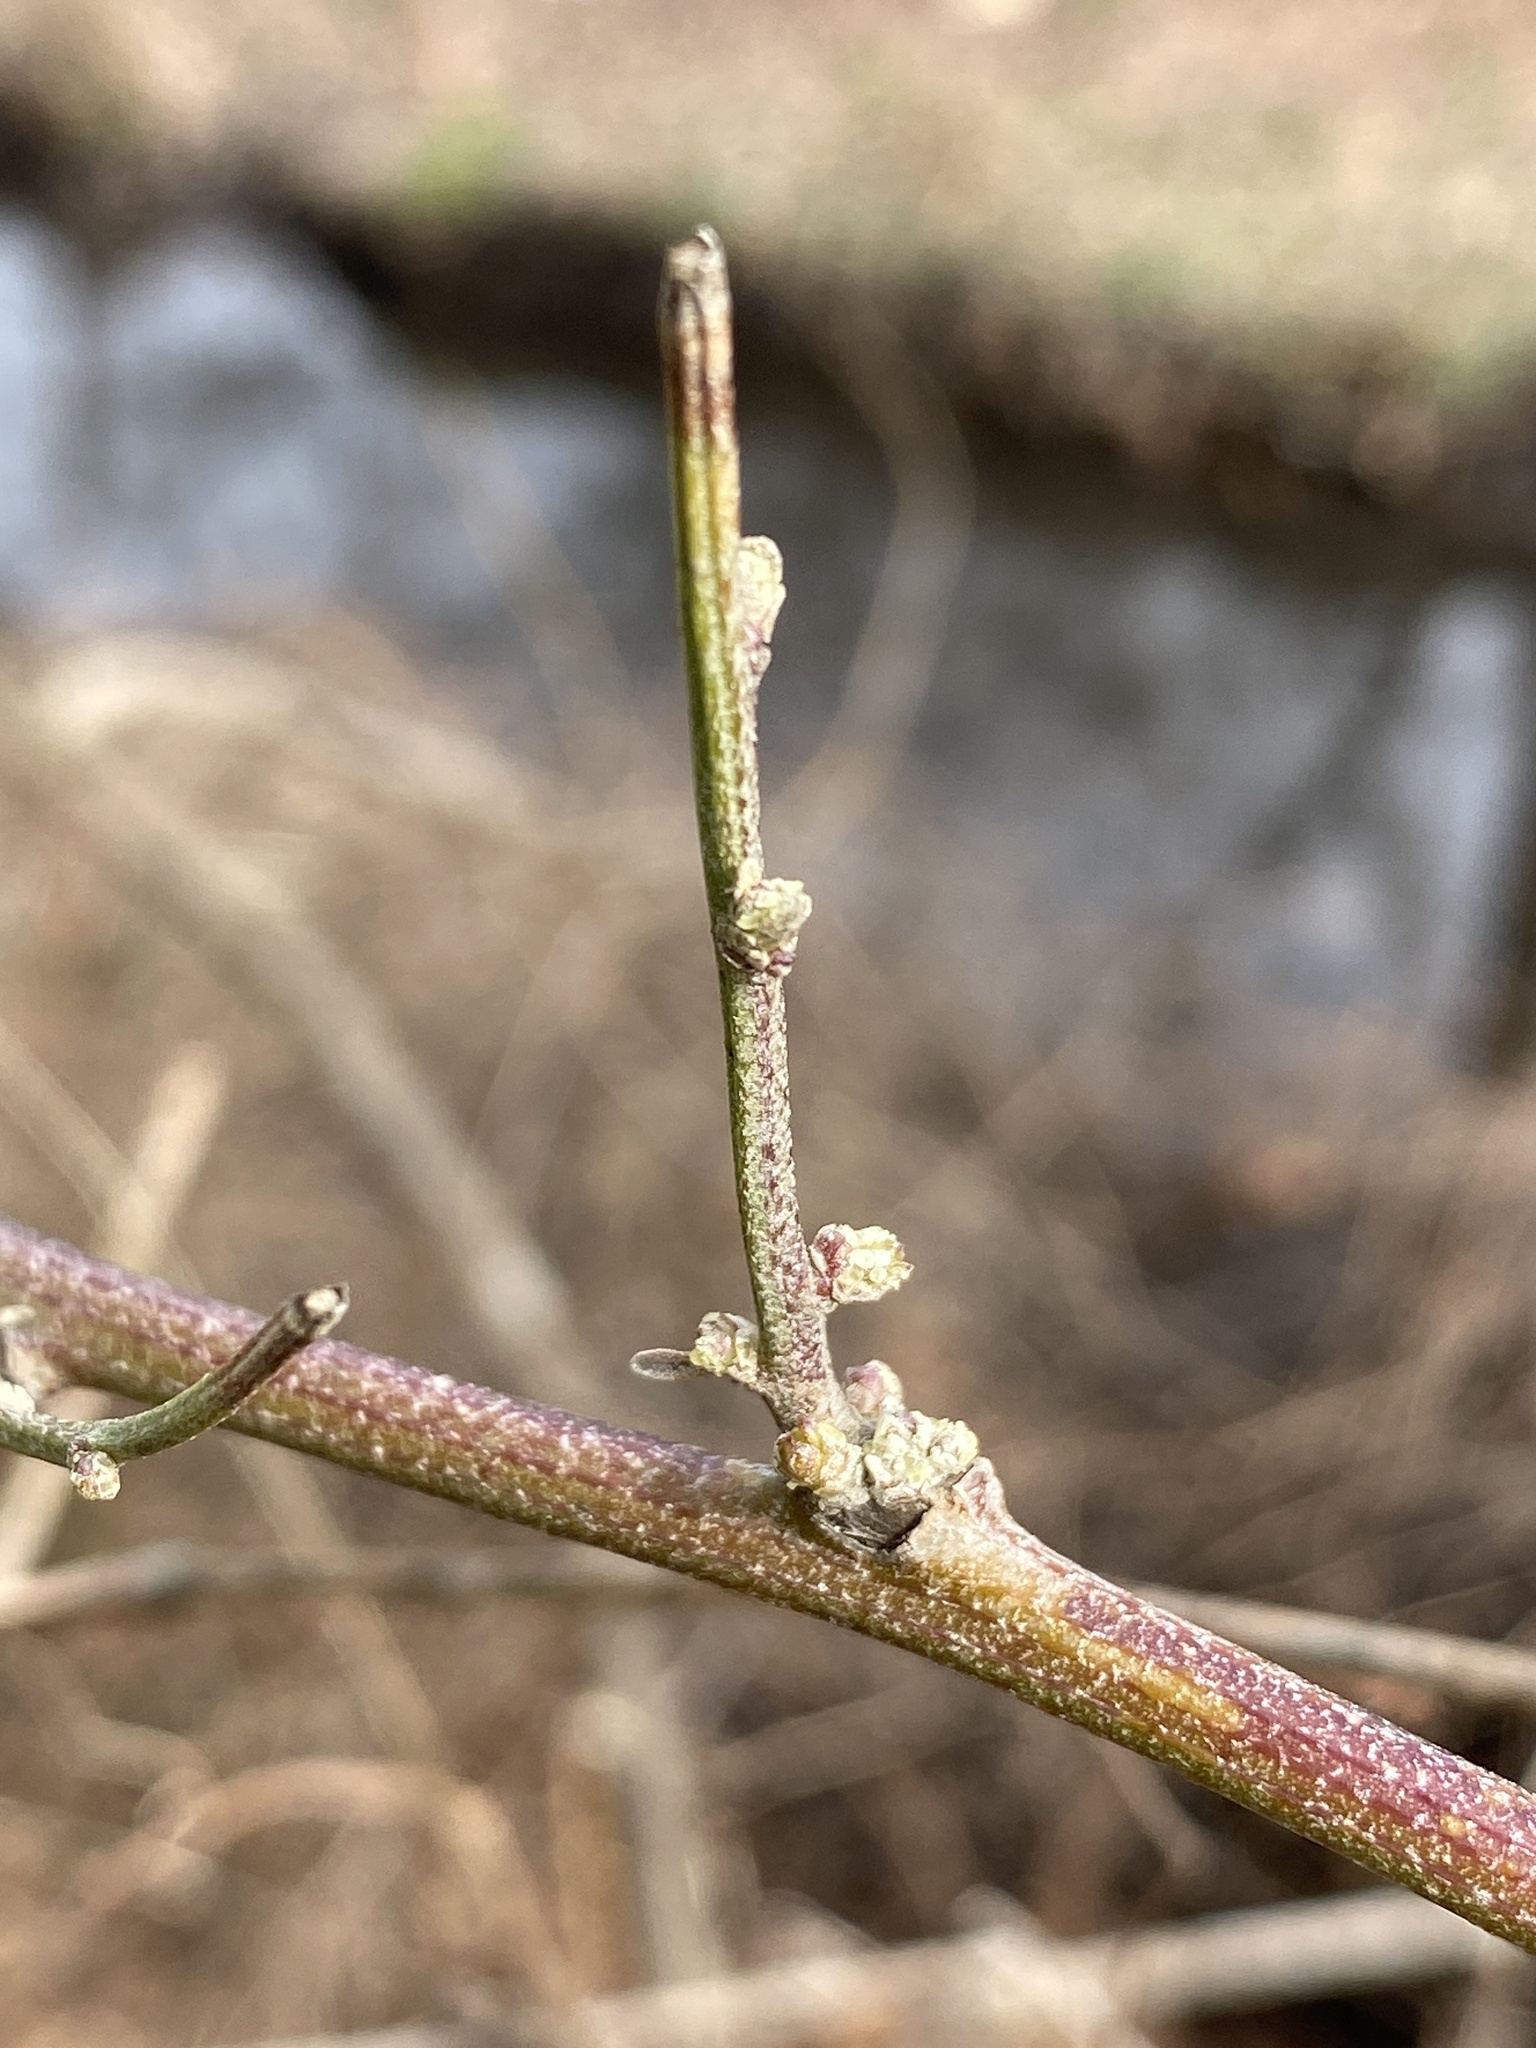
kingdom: Plantae
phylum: Tracheophyta
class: Magnoliopsida
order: Asterales
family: Asteraceae
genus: Baccharis
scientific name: Baccharis halimifolia
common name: Eastern baccharis
